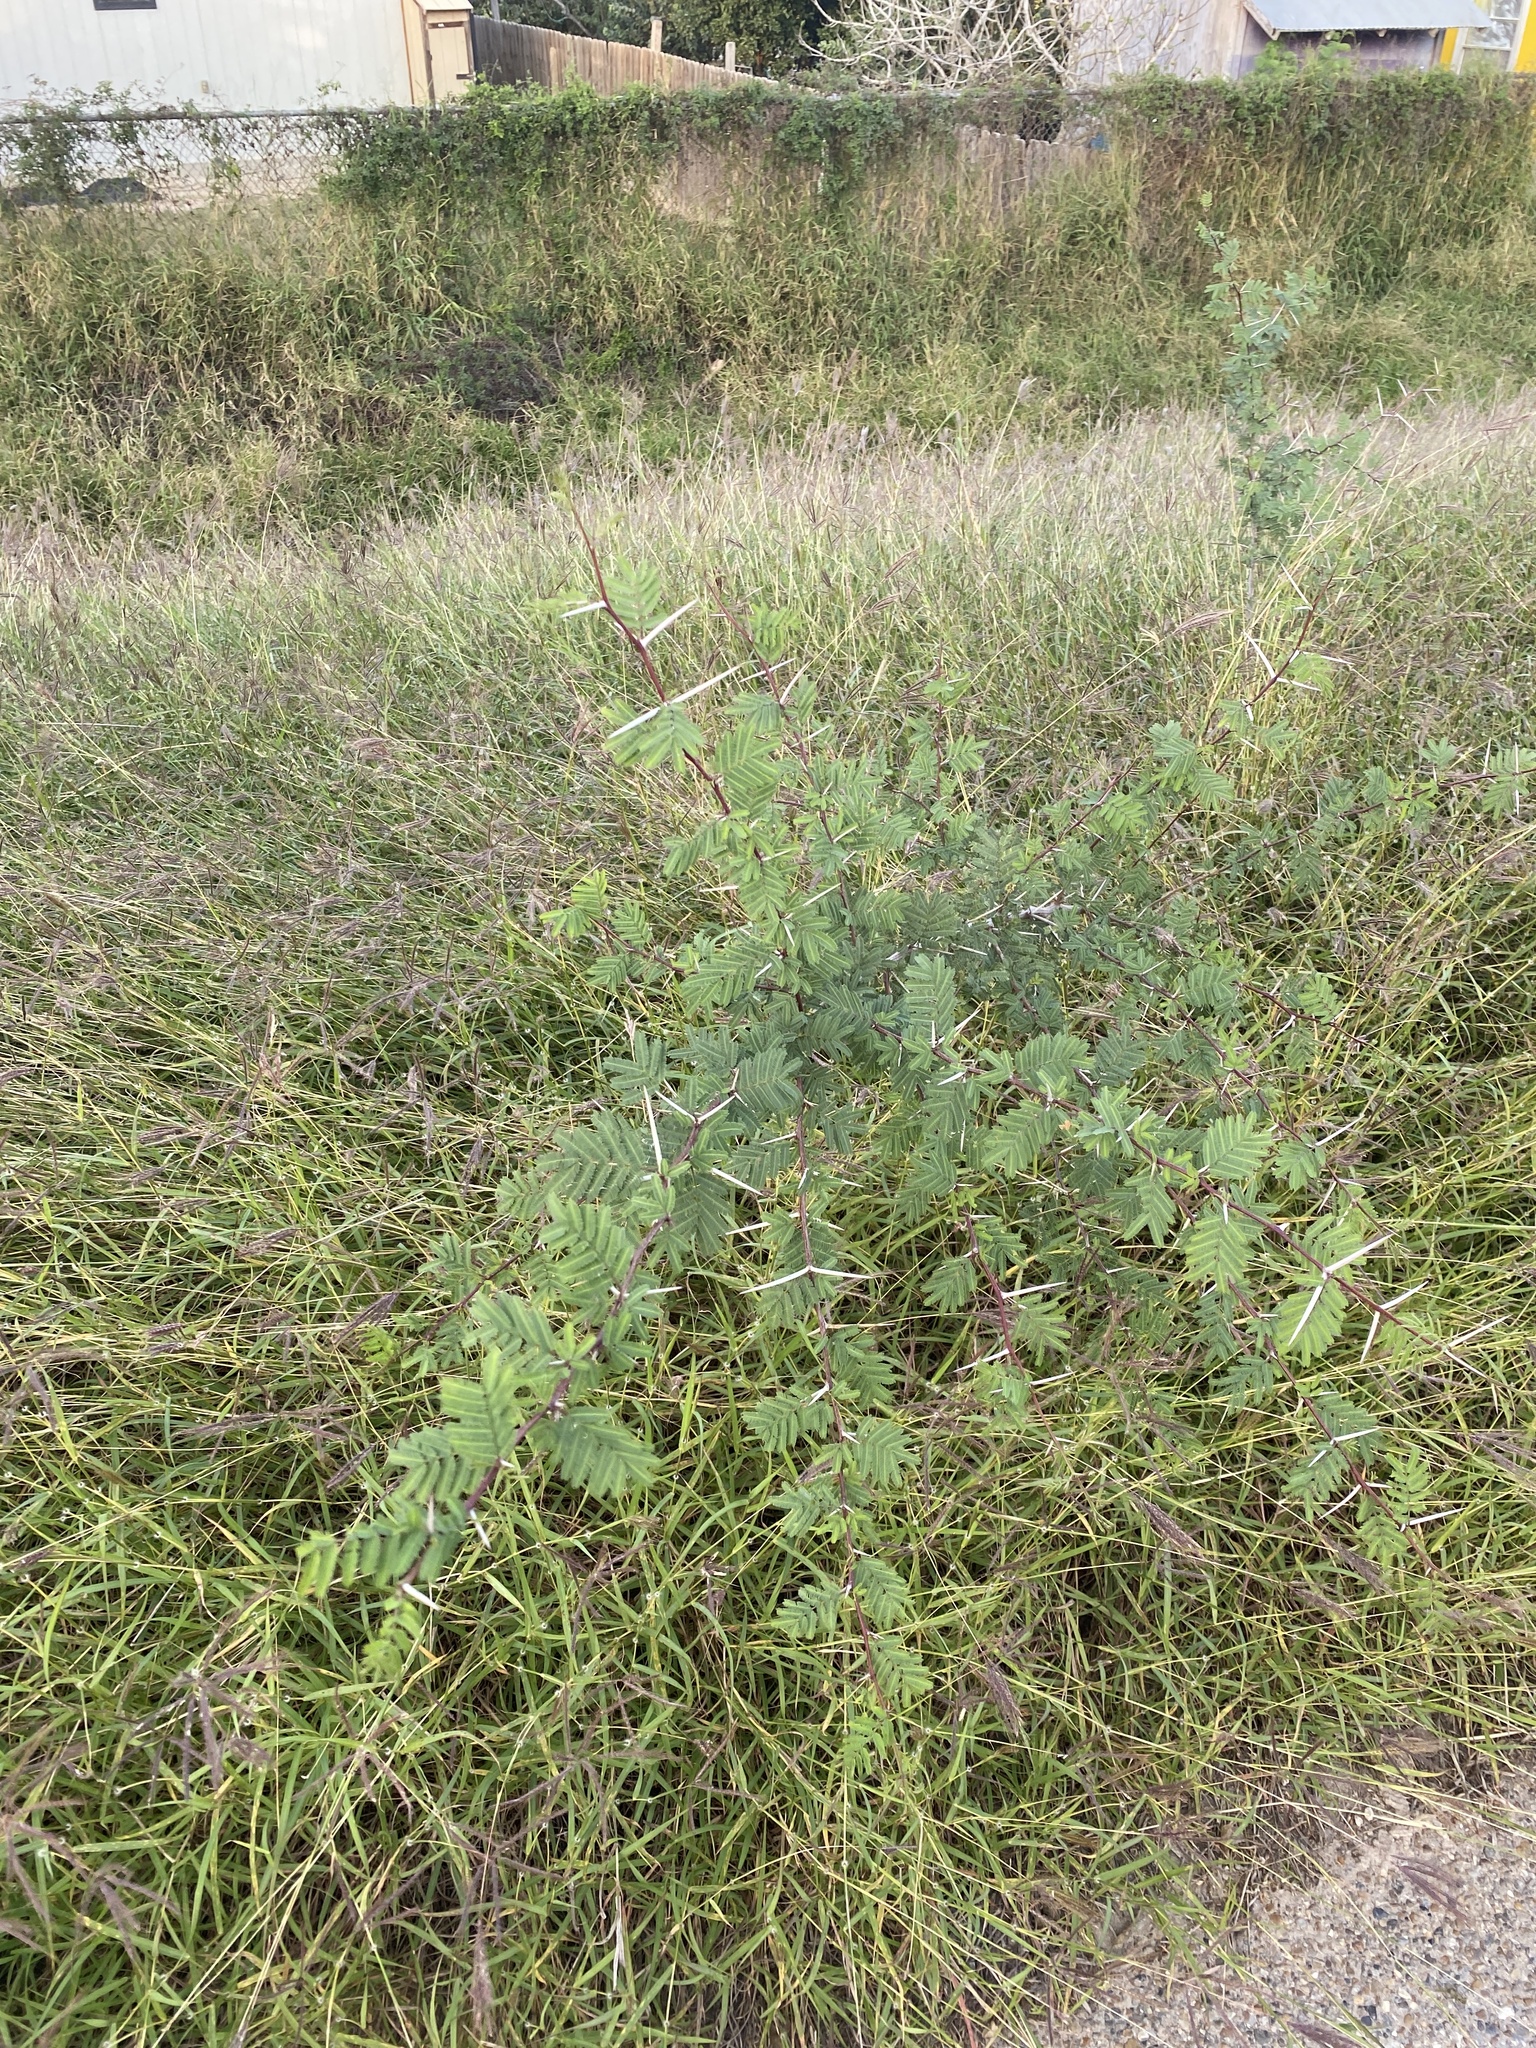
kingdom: Plantae
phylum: Tracheophyta
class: Magnoliopsida
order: Fabales
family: Fabaceae
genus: Vachellia
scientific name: Vachellia farnesiana
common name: Sweet acacia
